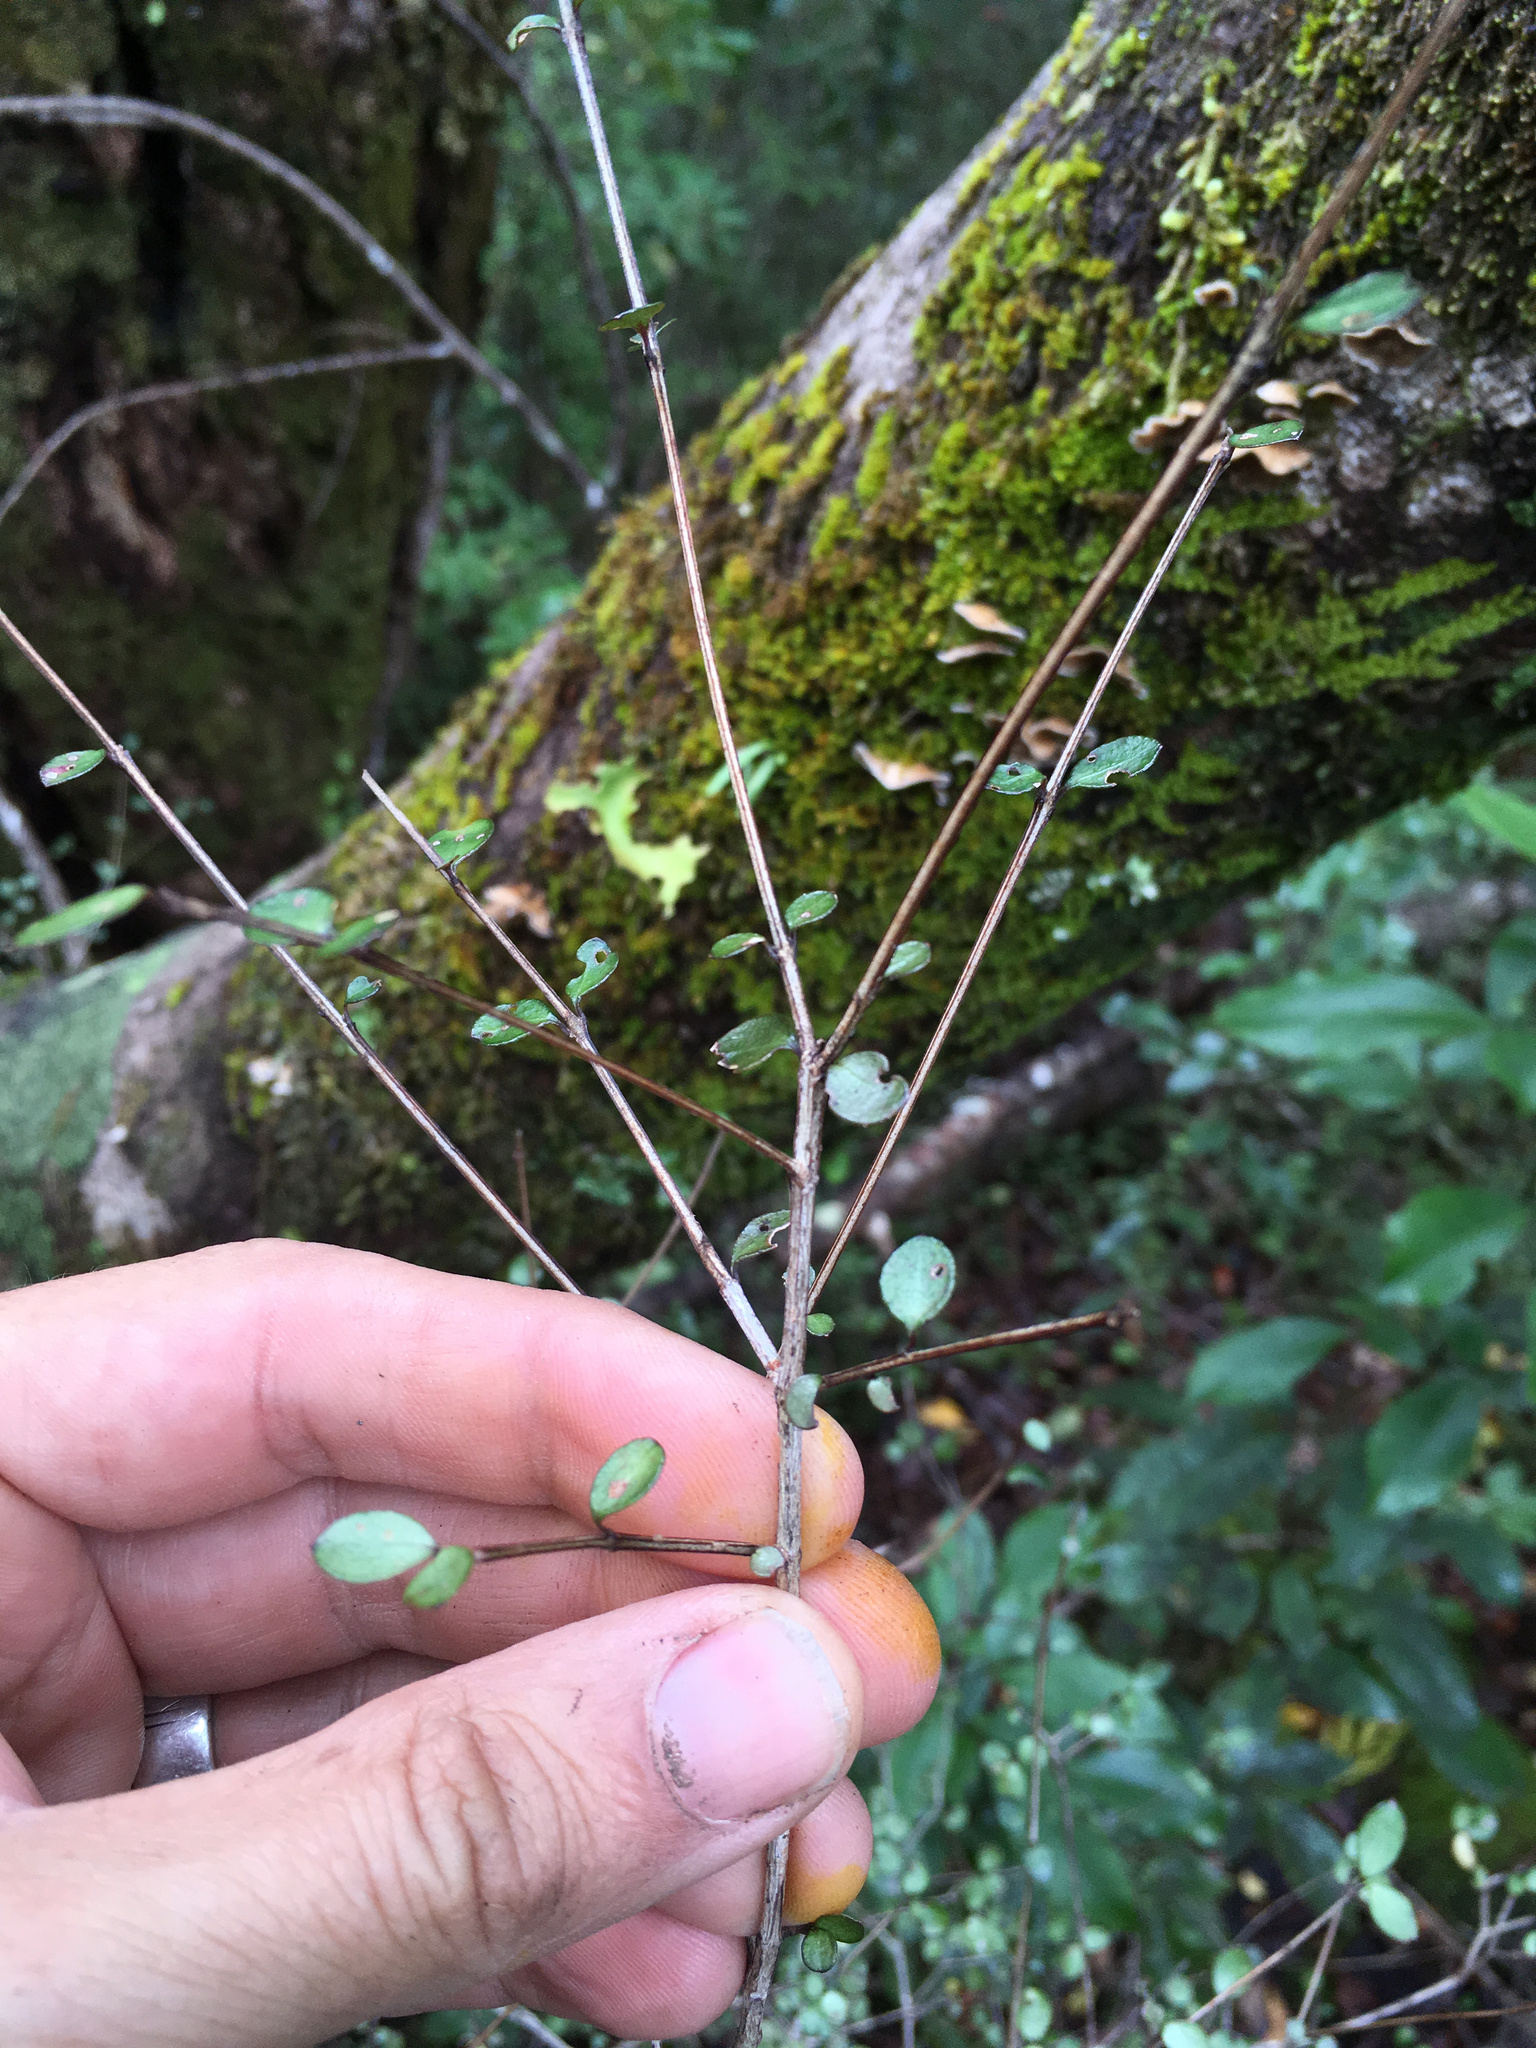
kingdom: Plantae
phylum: Tracheophyta
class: Magnoliopsida
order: Myrtales
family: Myrtaceae
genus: Neomyrtus
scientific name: Neomyrtus pedunculata
